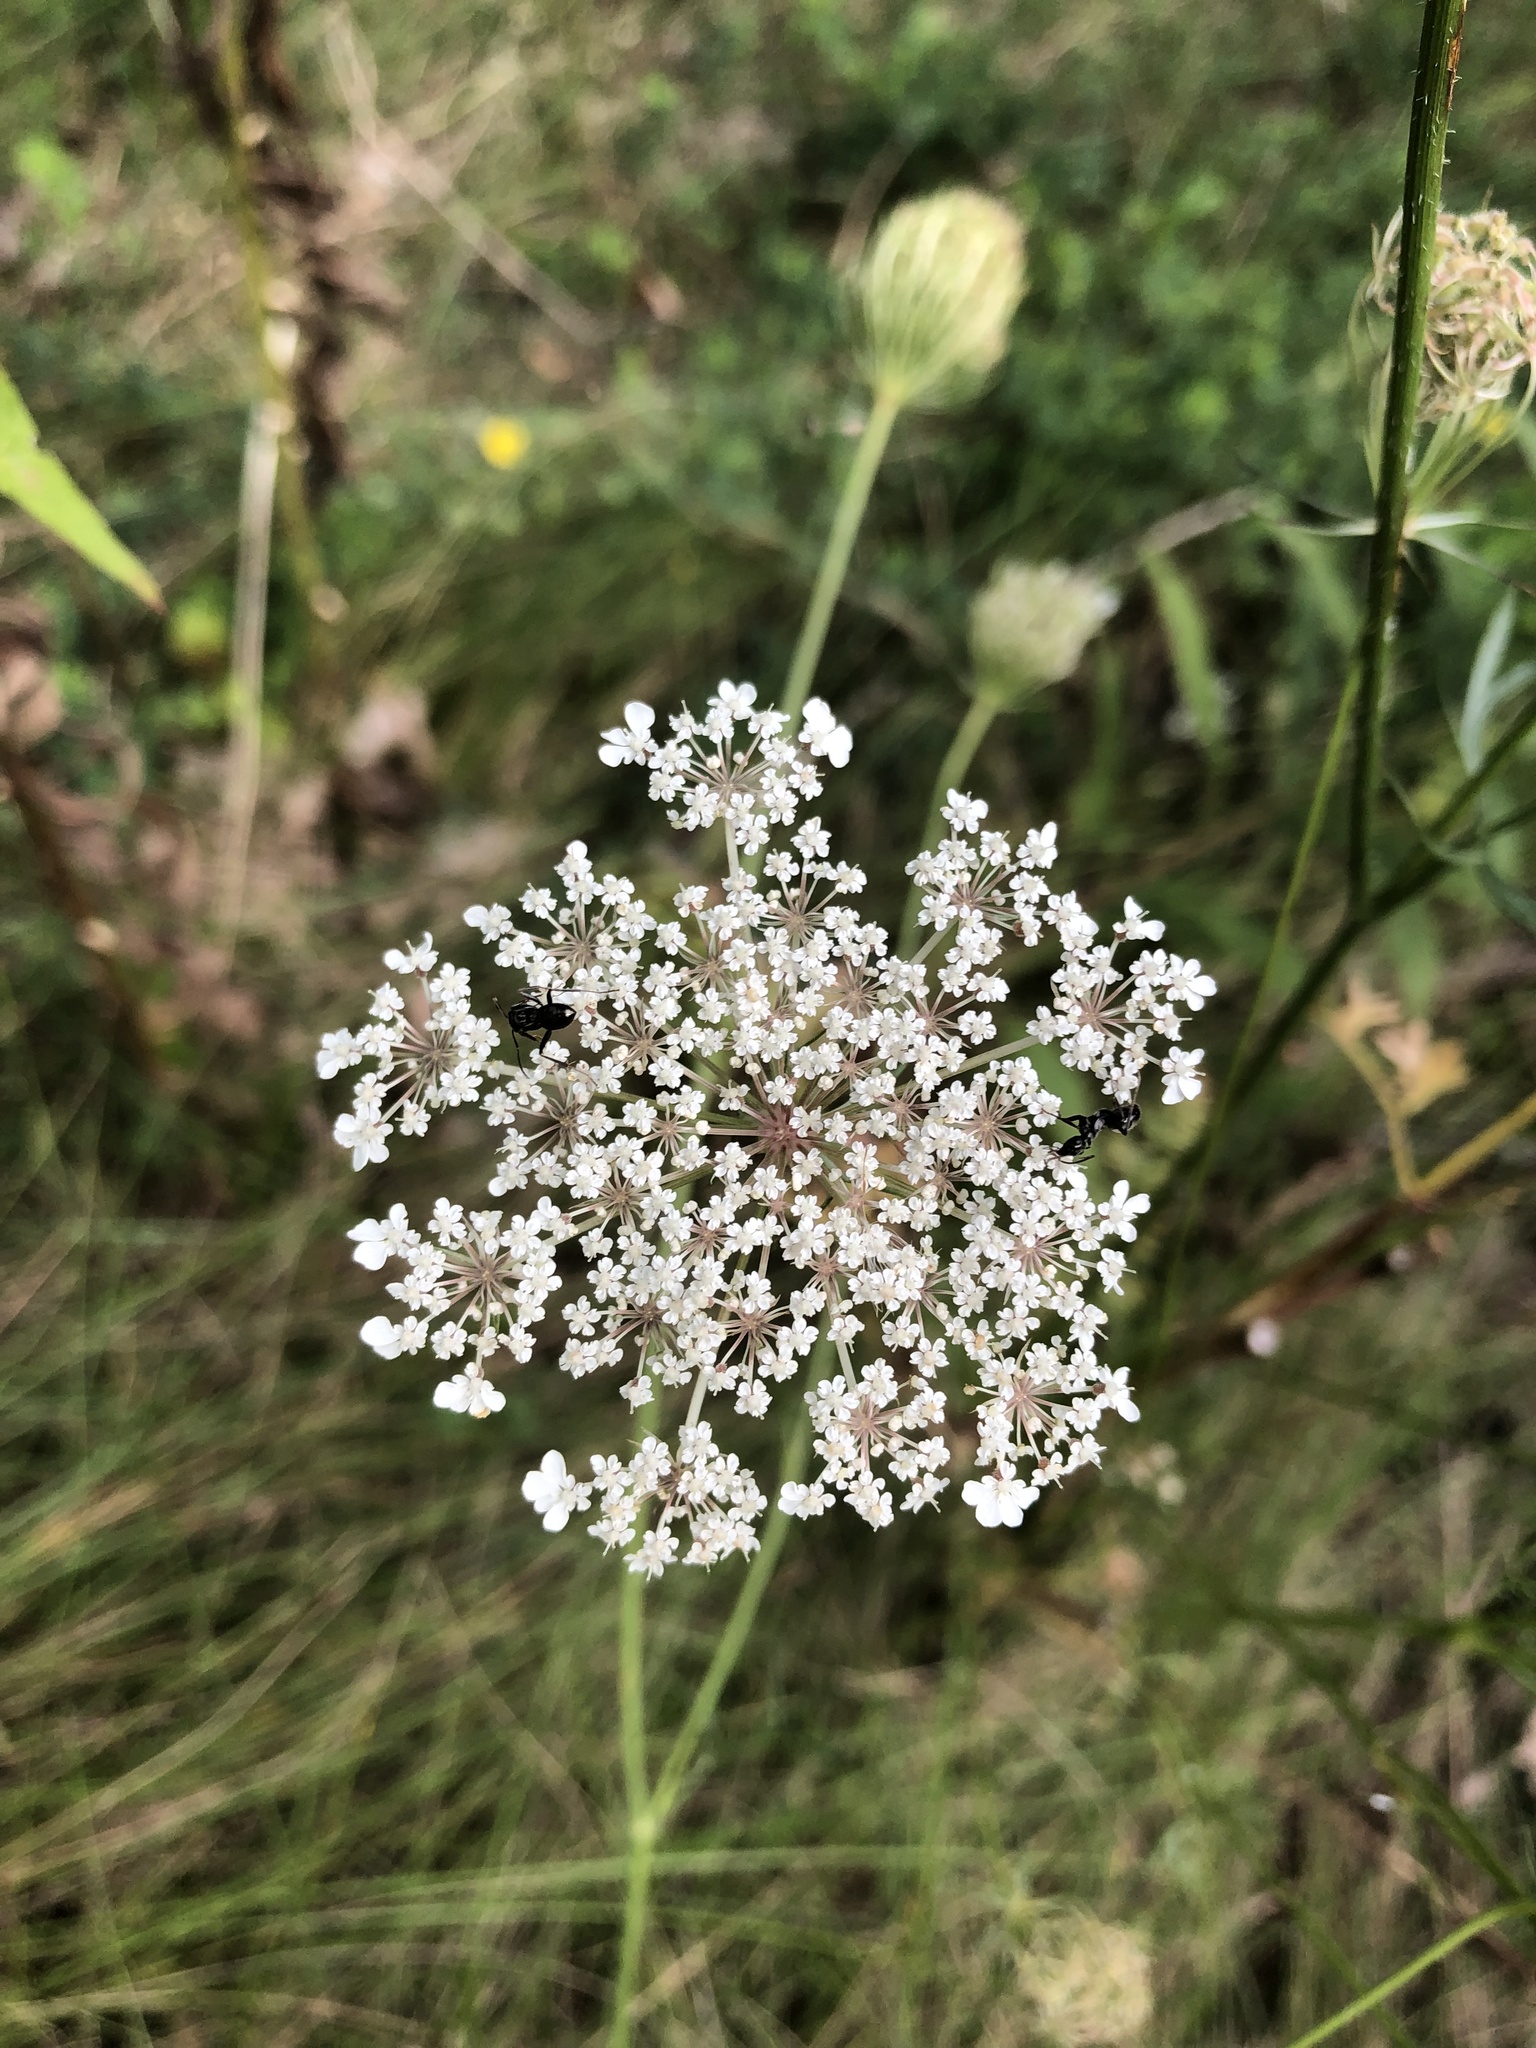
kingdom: Plantae
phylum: Tracheophyta
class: Magnoliopsida
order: Apiales
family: Apiaceae
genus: Daucus
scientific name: Daucus carota
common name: Wild carrot
